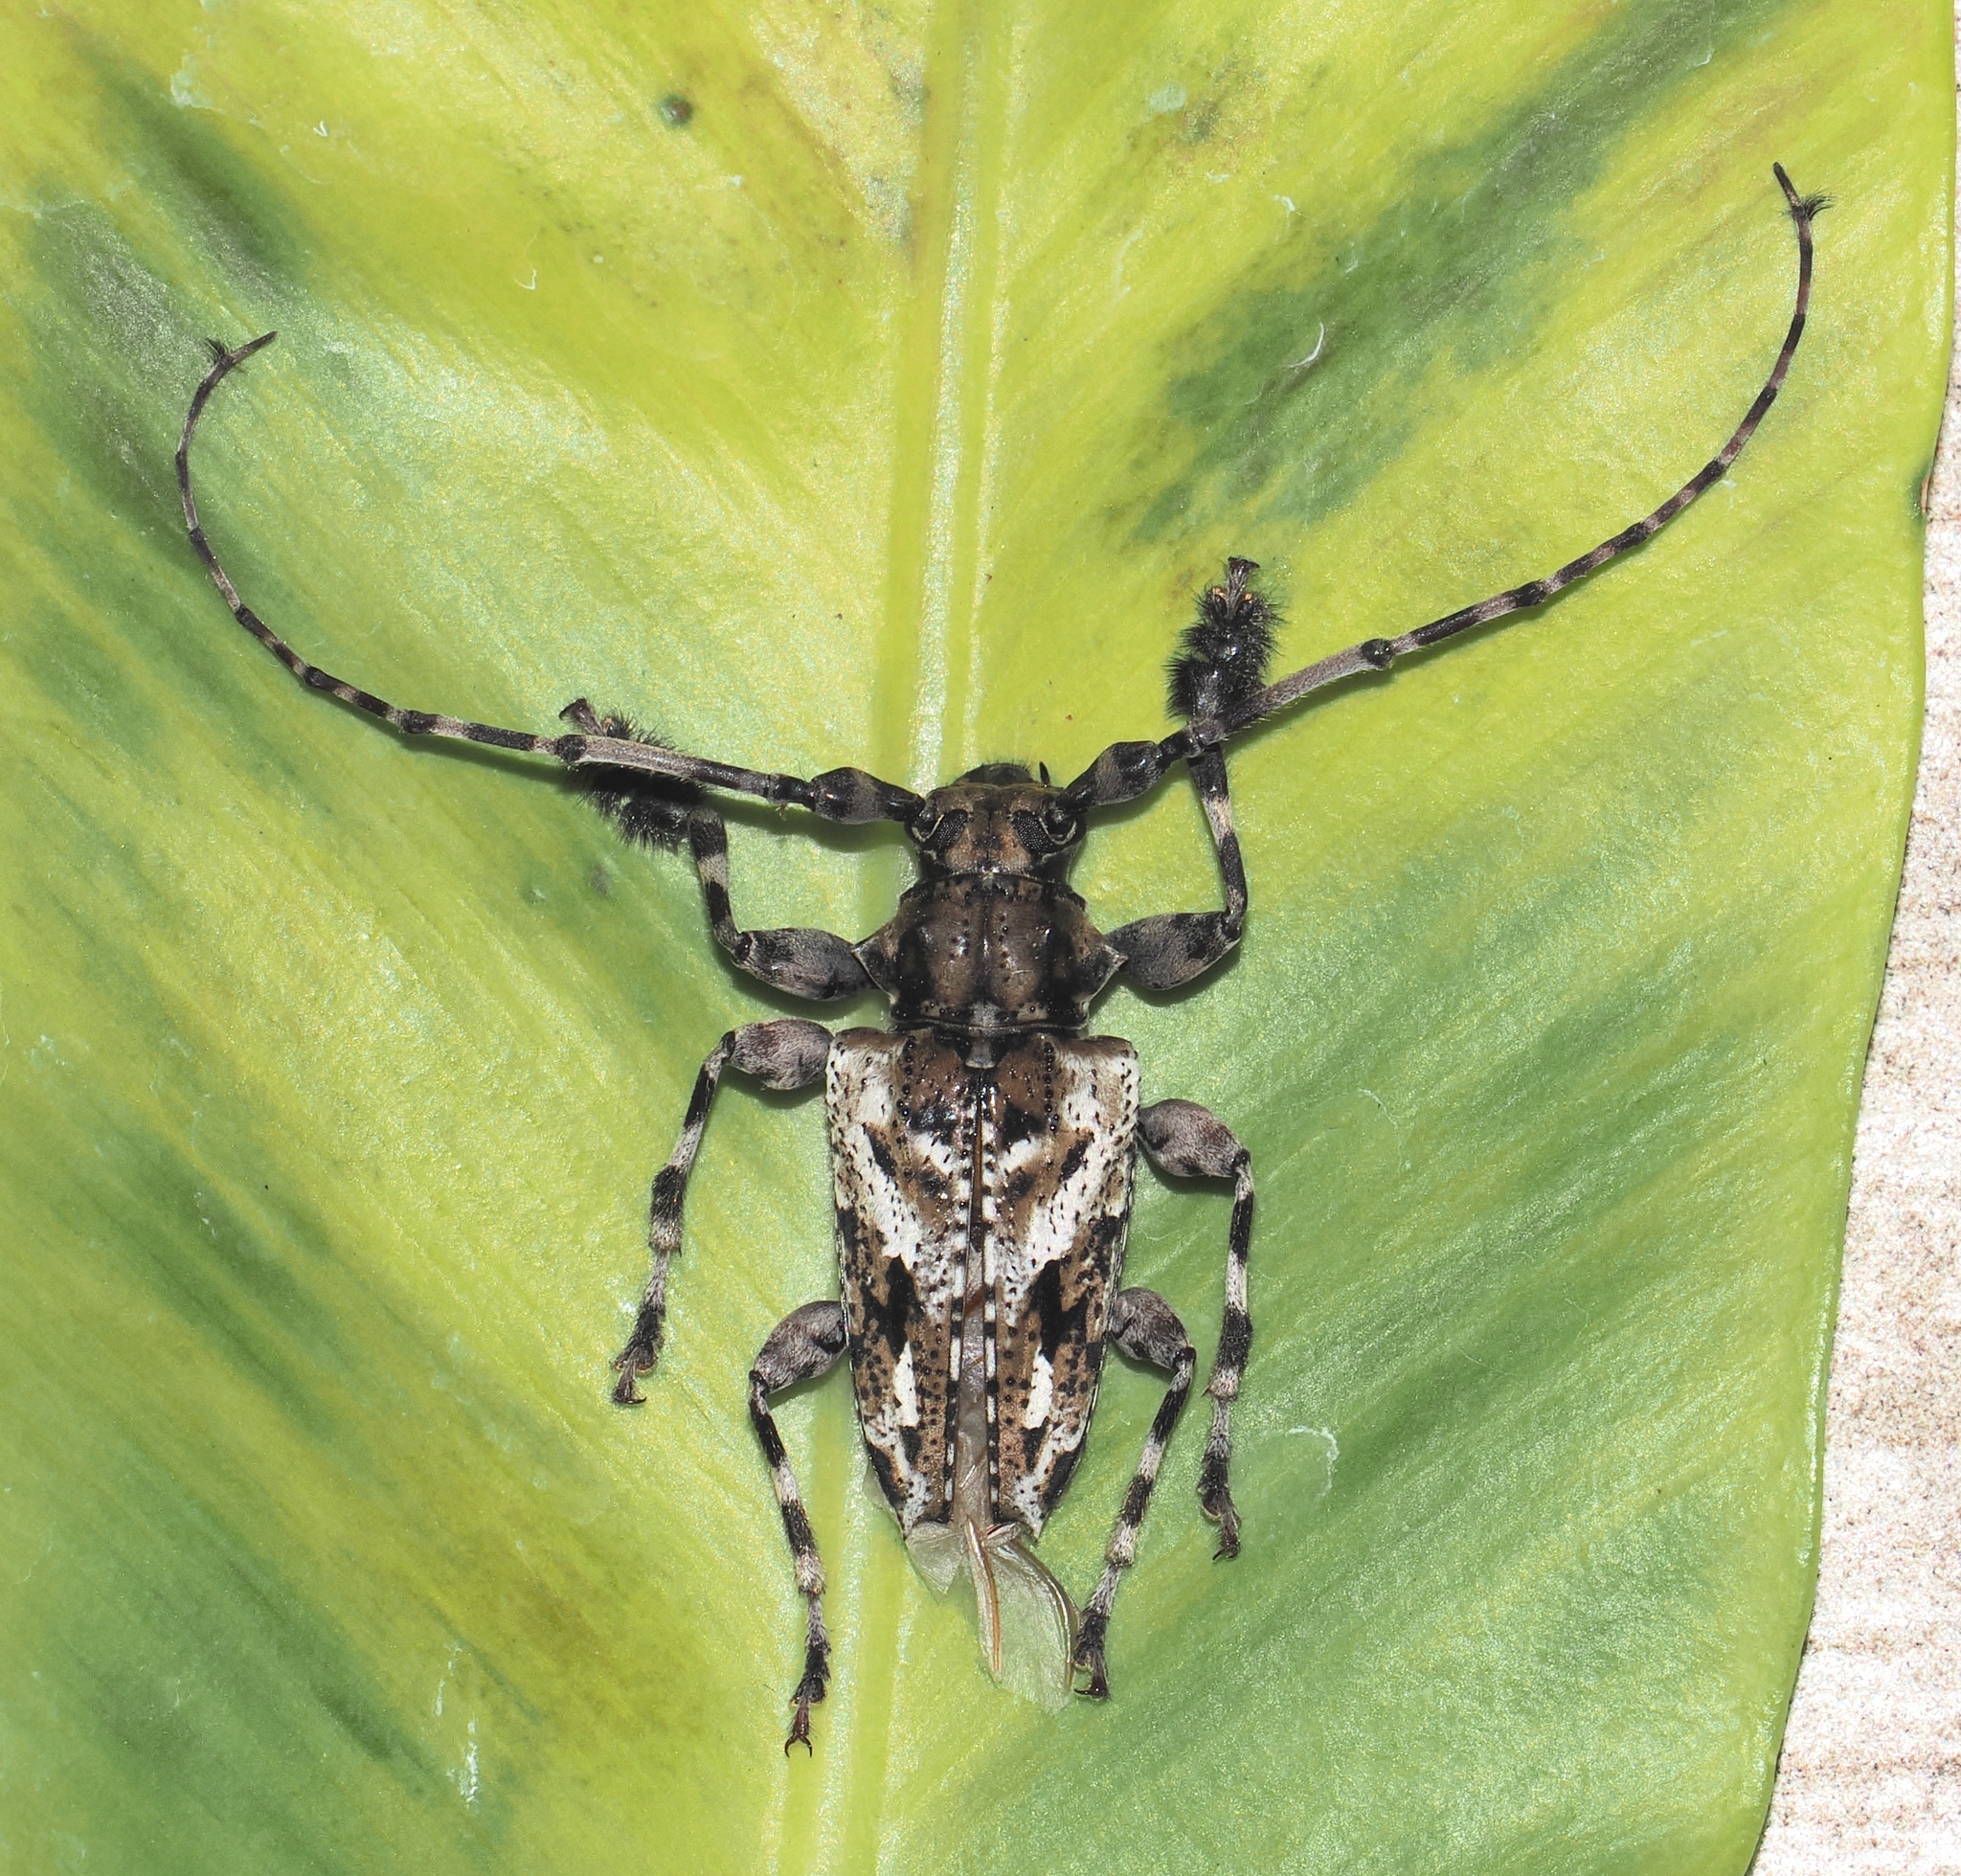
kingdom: Animalia
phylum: Arthropoda
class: Insecta
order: Coleoptera
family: Cerambycidae
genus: Aegomorphus
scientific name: Aegomorphus
